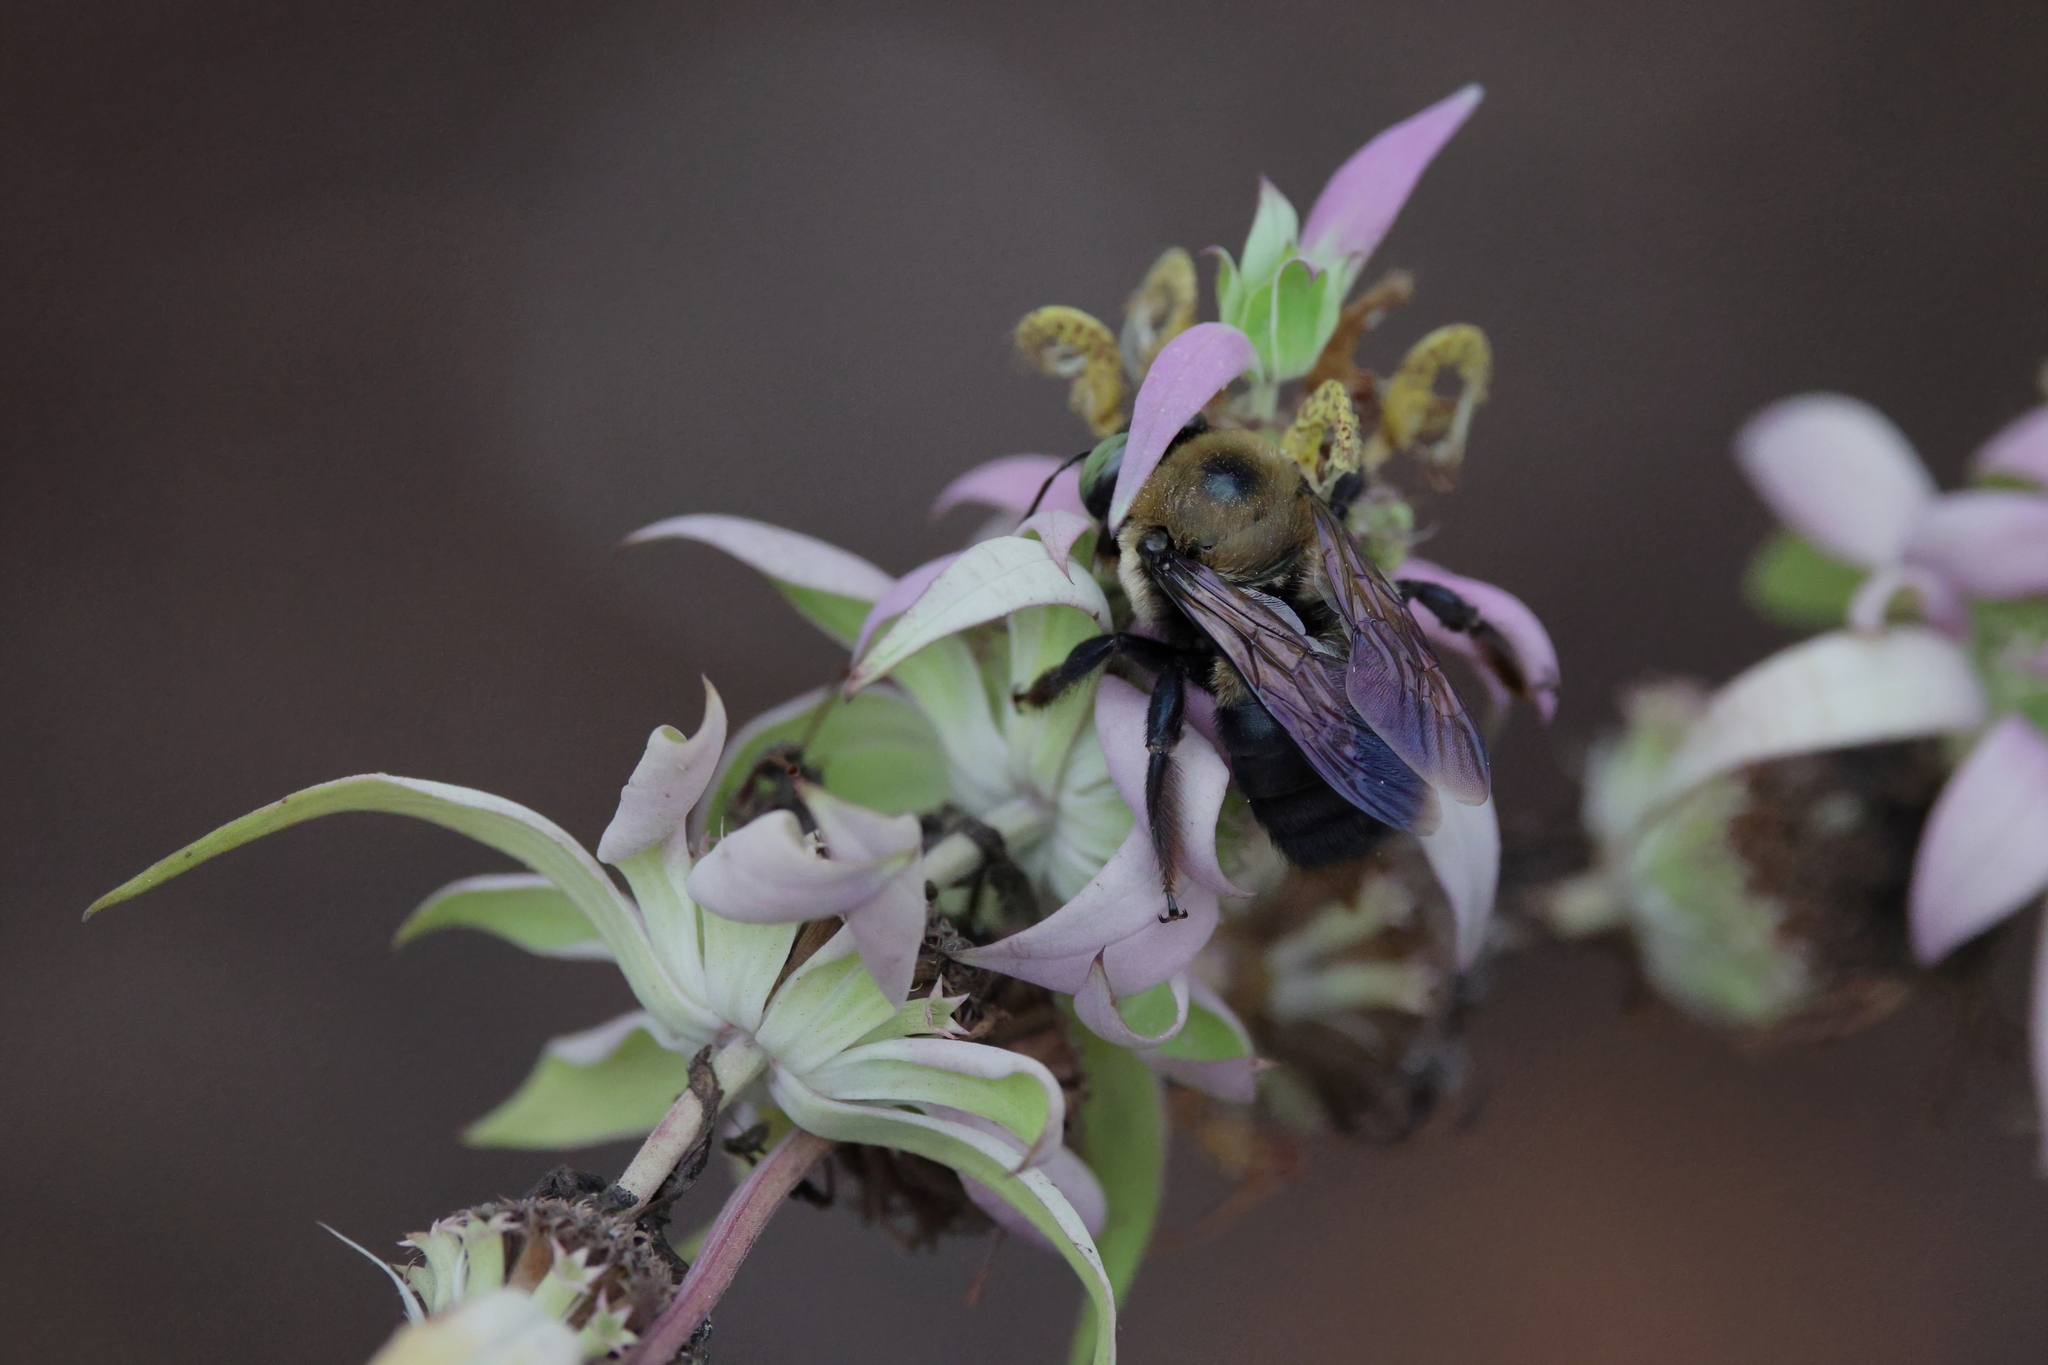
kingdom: Animalia
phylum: Arthropoda
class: Insecta
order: Hymenoptera
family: Apidae
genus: Xylocopa
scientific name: Xylocopa virginica
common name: Carpenter bee
